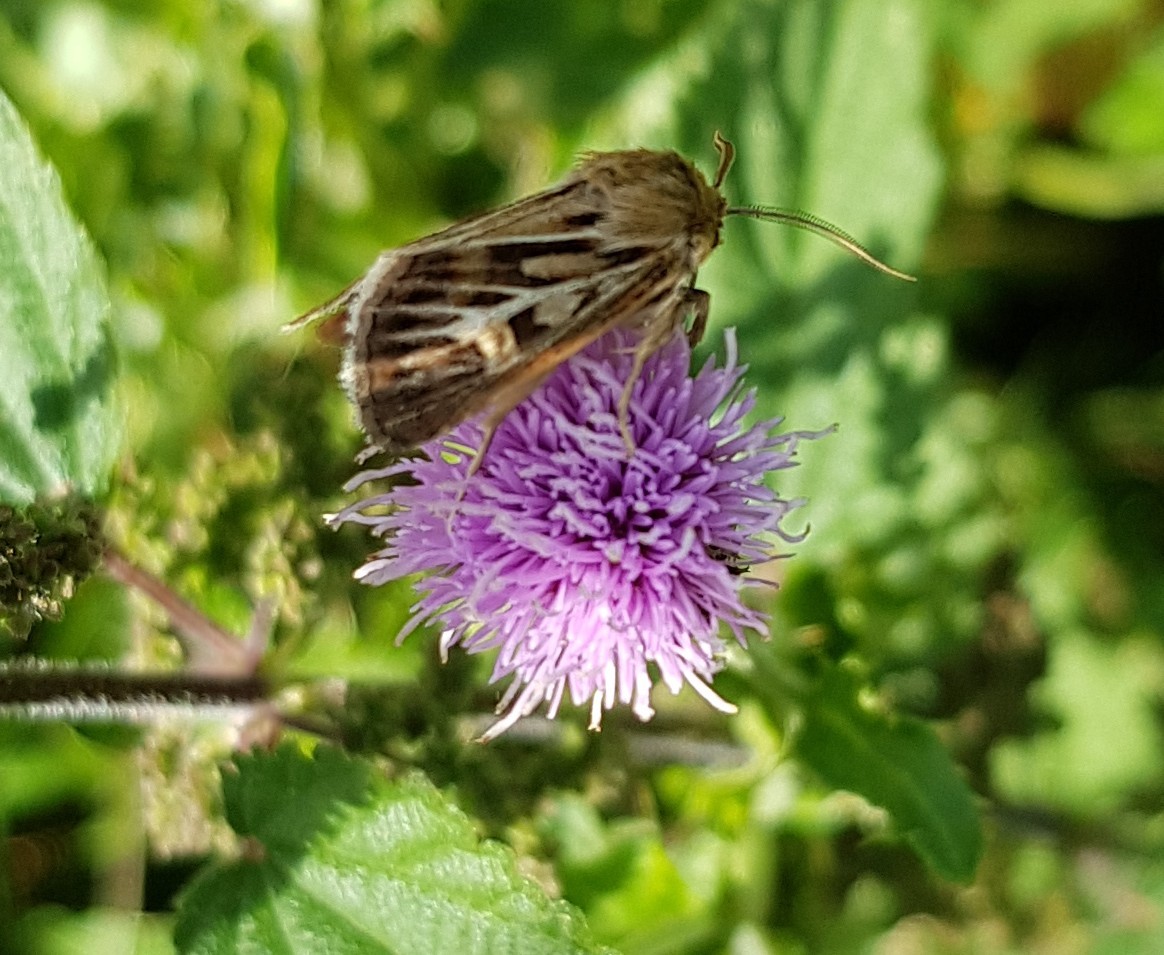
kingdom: Animalia
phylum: Arthropoda
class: Insecta
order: Lepidoptera
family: Noctuidae
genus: Cerapteryx
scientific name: Cerapteryx graminis
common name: Antler moth
